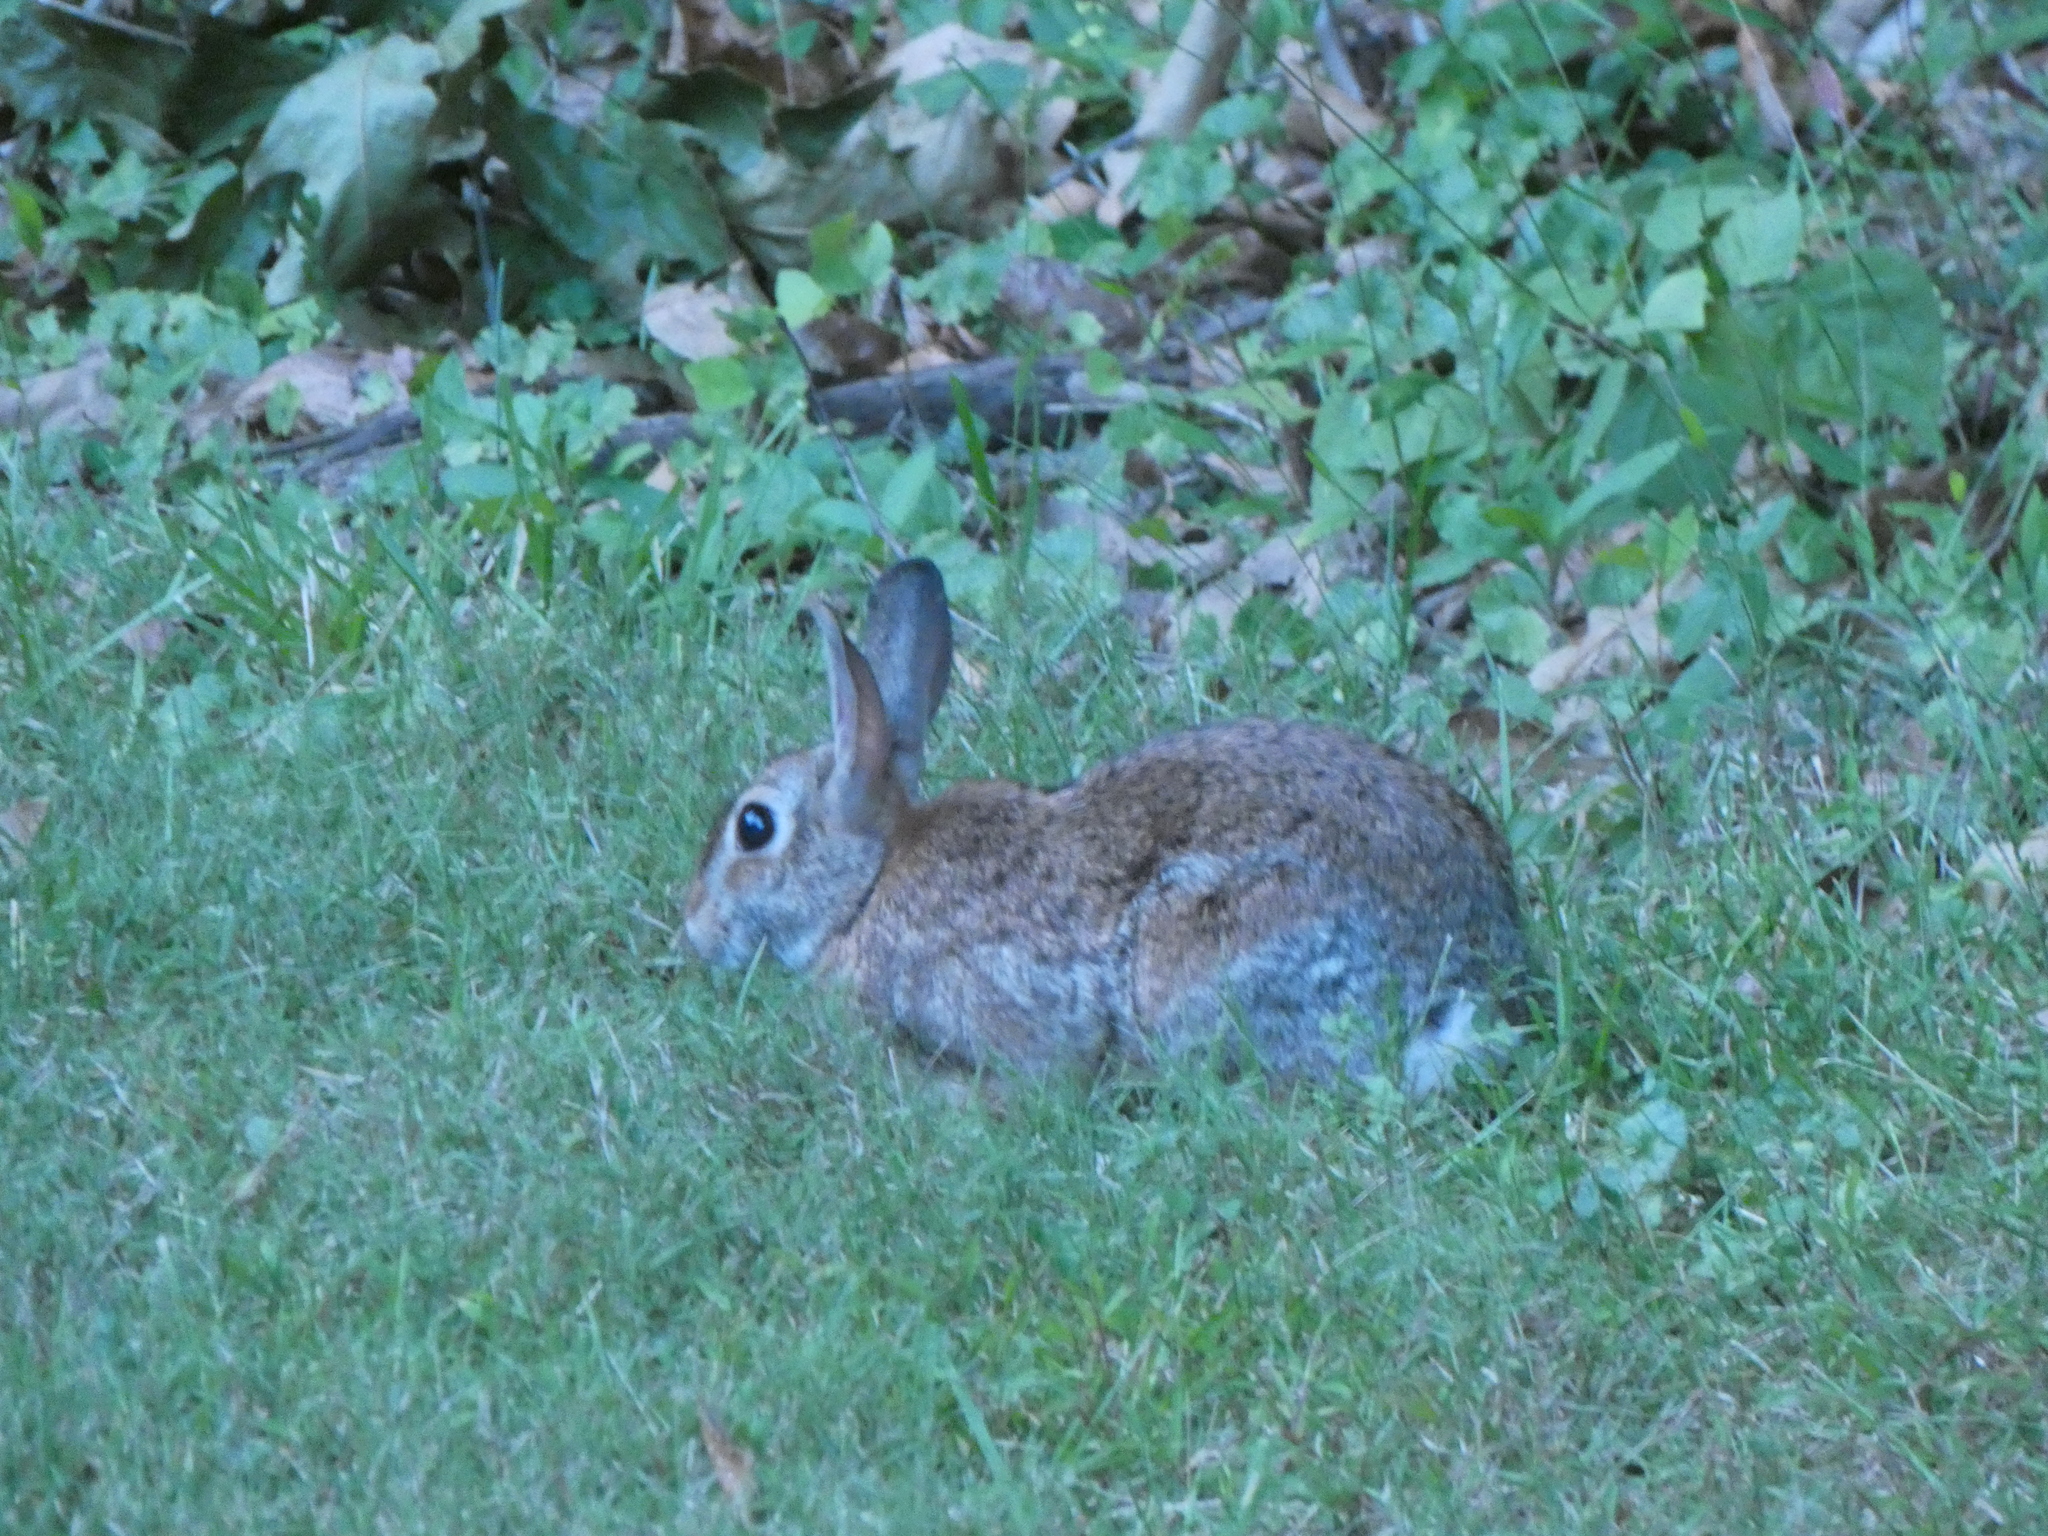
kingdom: Animalia
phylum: Chordata
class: Mammalia
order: Lagomorpha
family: Leporidae
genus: Sylvilagus
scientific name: Sylvilagus floridanus
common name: Eastern cottontail
